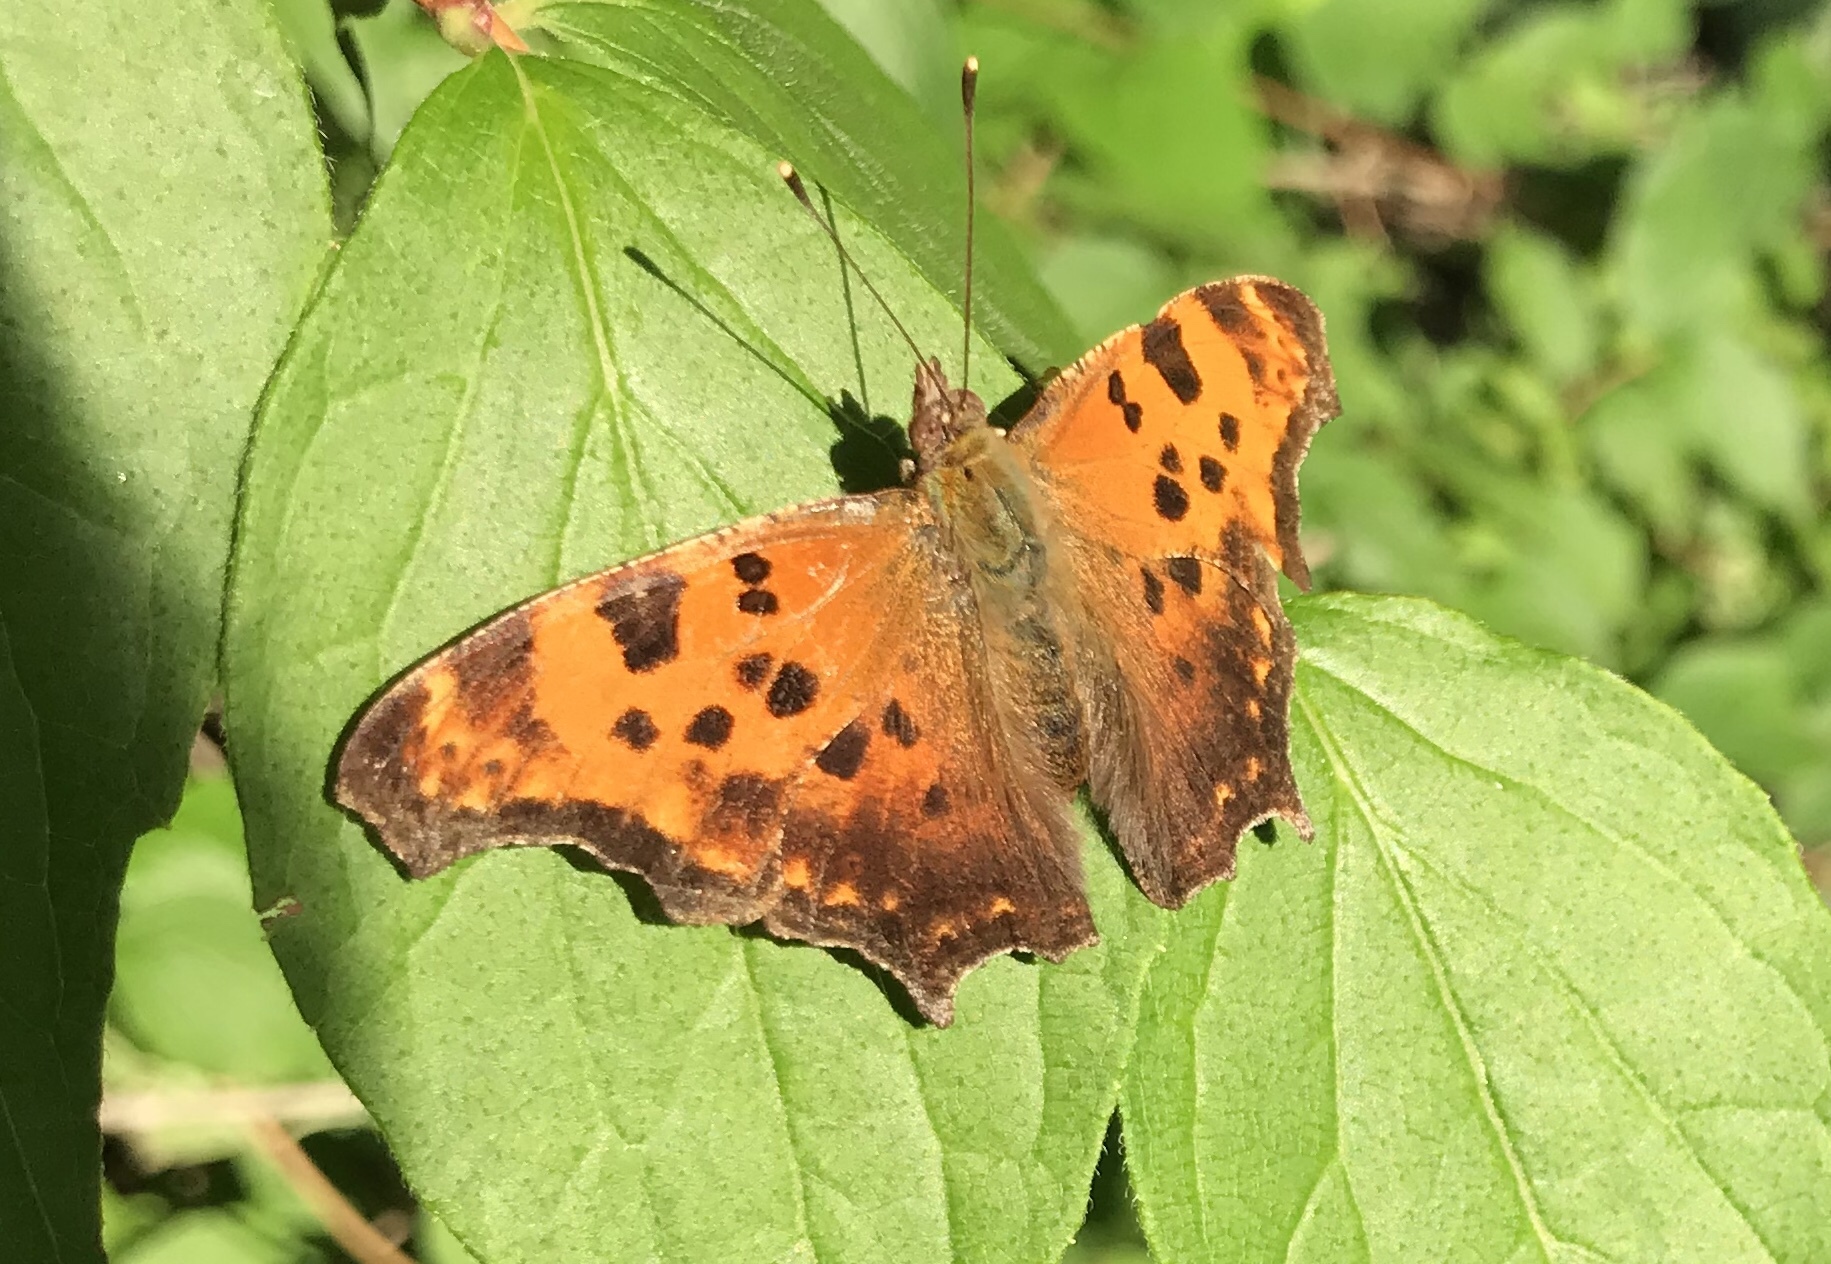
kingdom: Animalia
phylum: Arthropoda
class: Insecta
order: Lepidoptera
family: Nymphalidae
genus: Polygonia
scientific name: Polygonia comma
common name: Eastern comma
